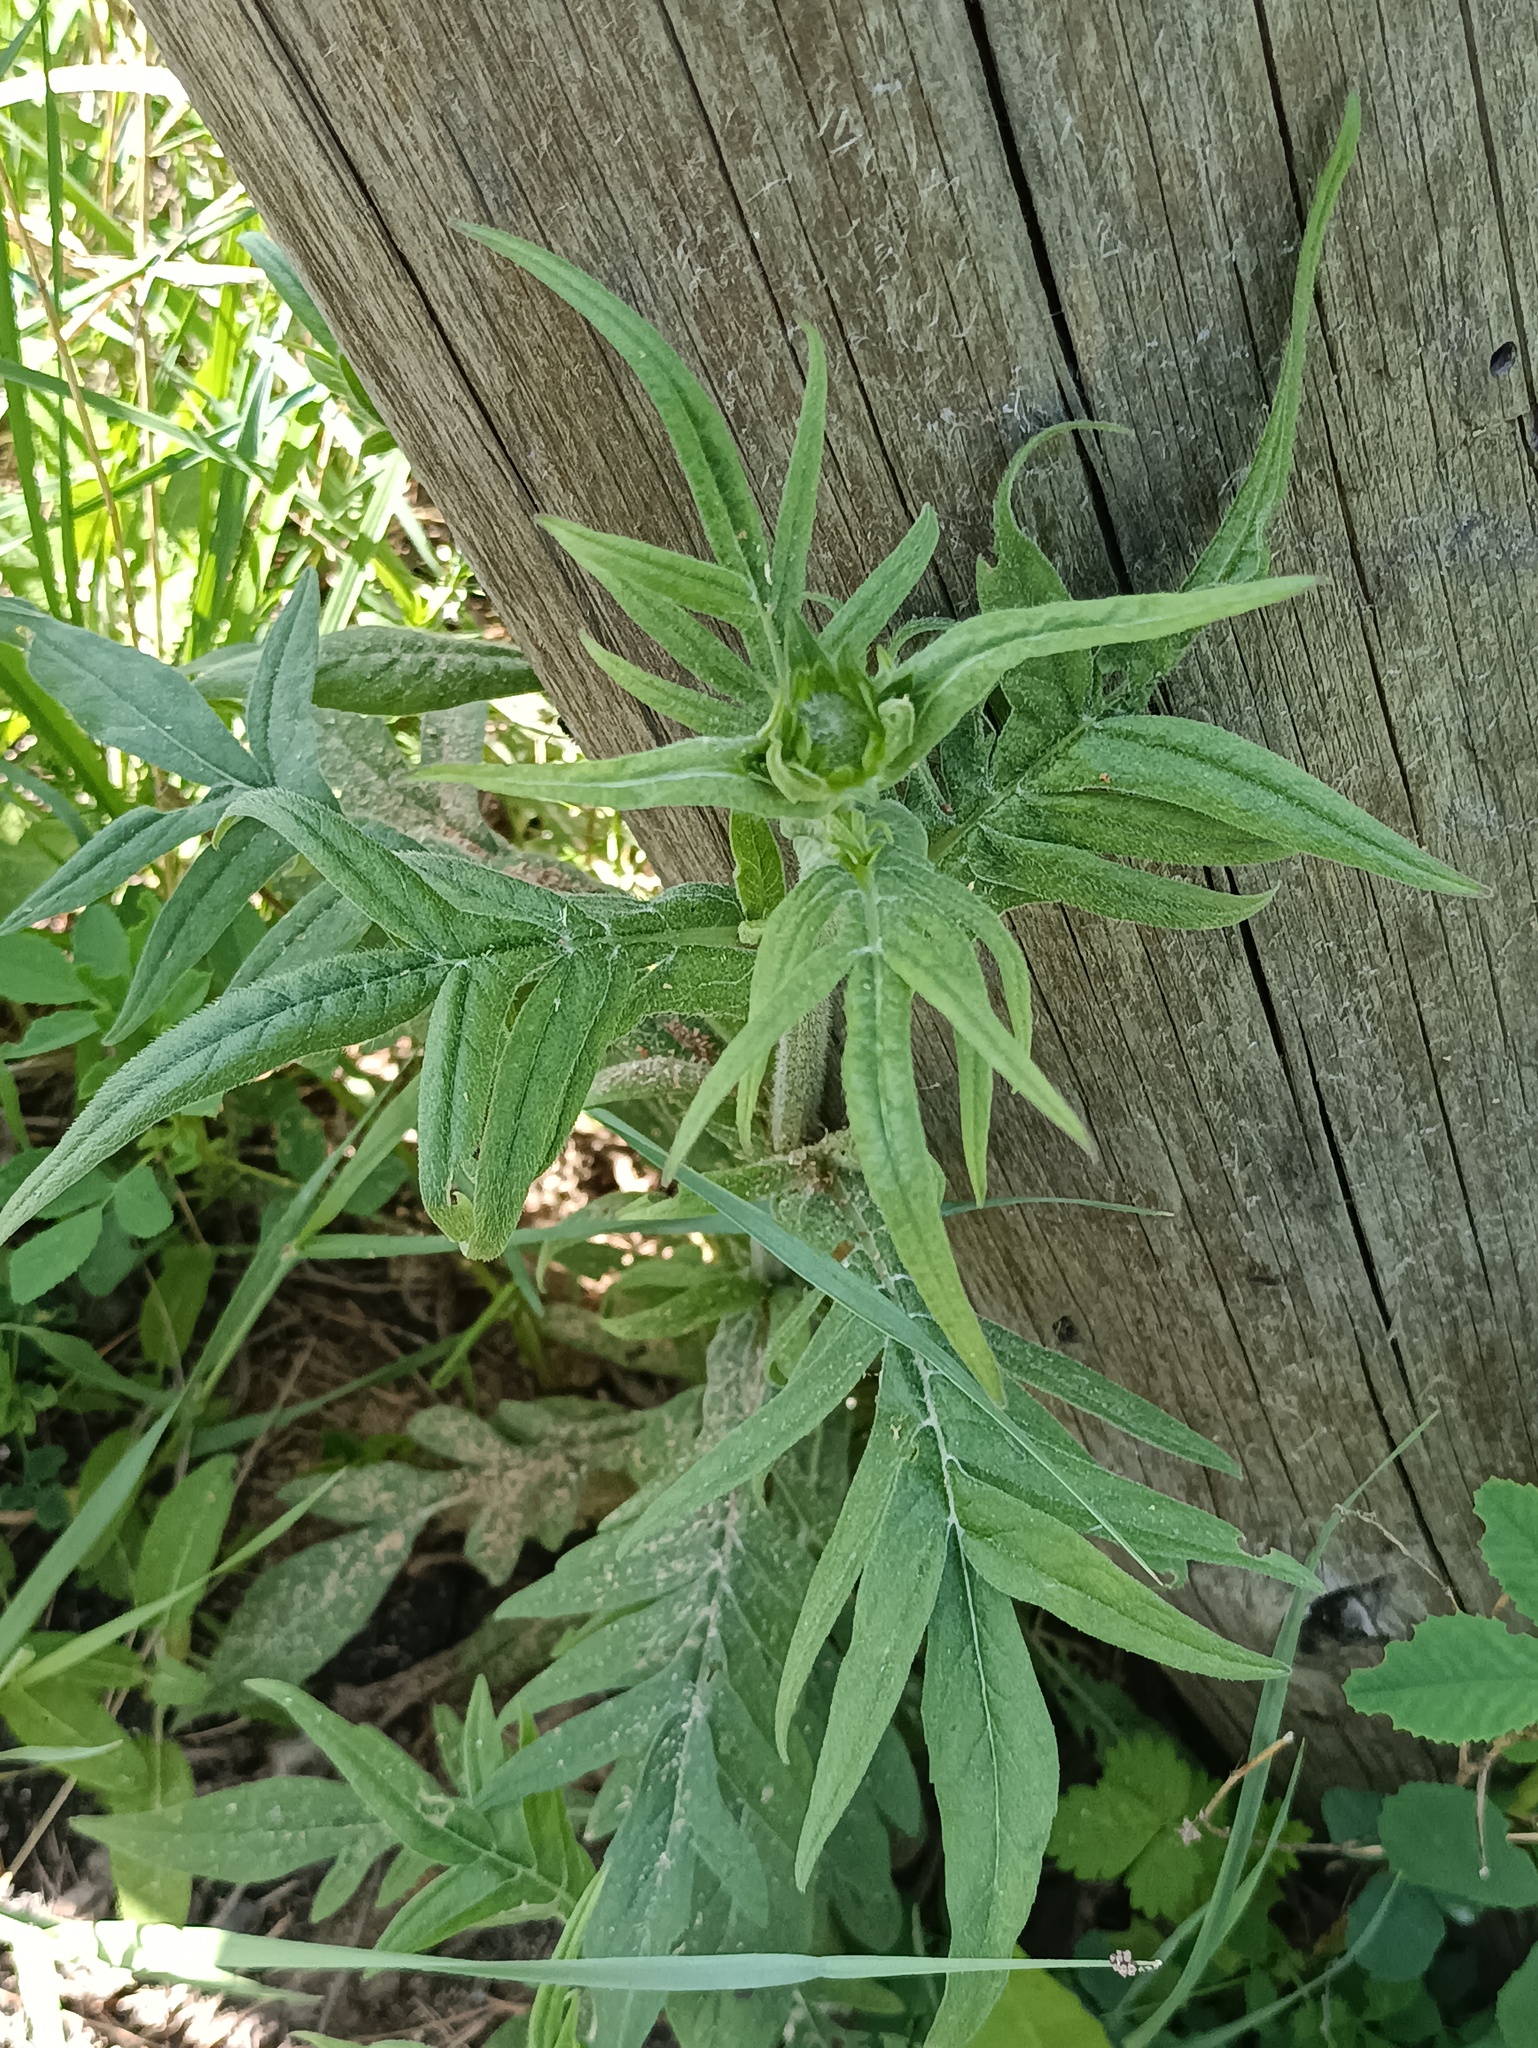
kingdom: Plantae
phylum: Tracheophyta
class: Magnoliopsida
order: Dipsacales
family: Caprifoliaceae
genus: Knautia
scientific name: Knautia arvensis
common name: Field scabiosa
